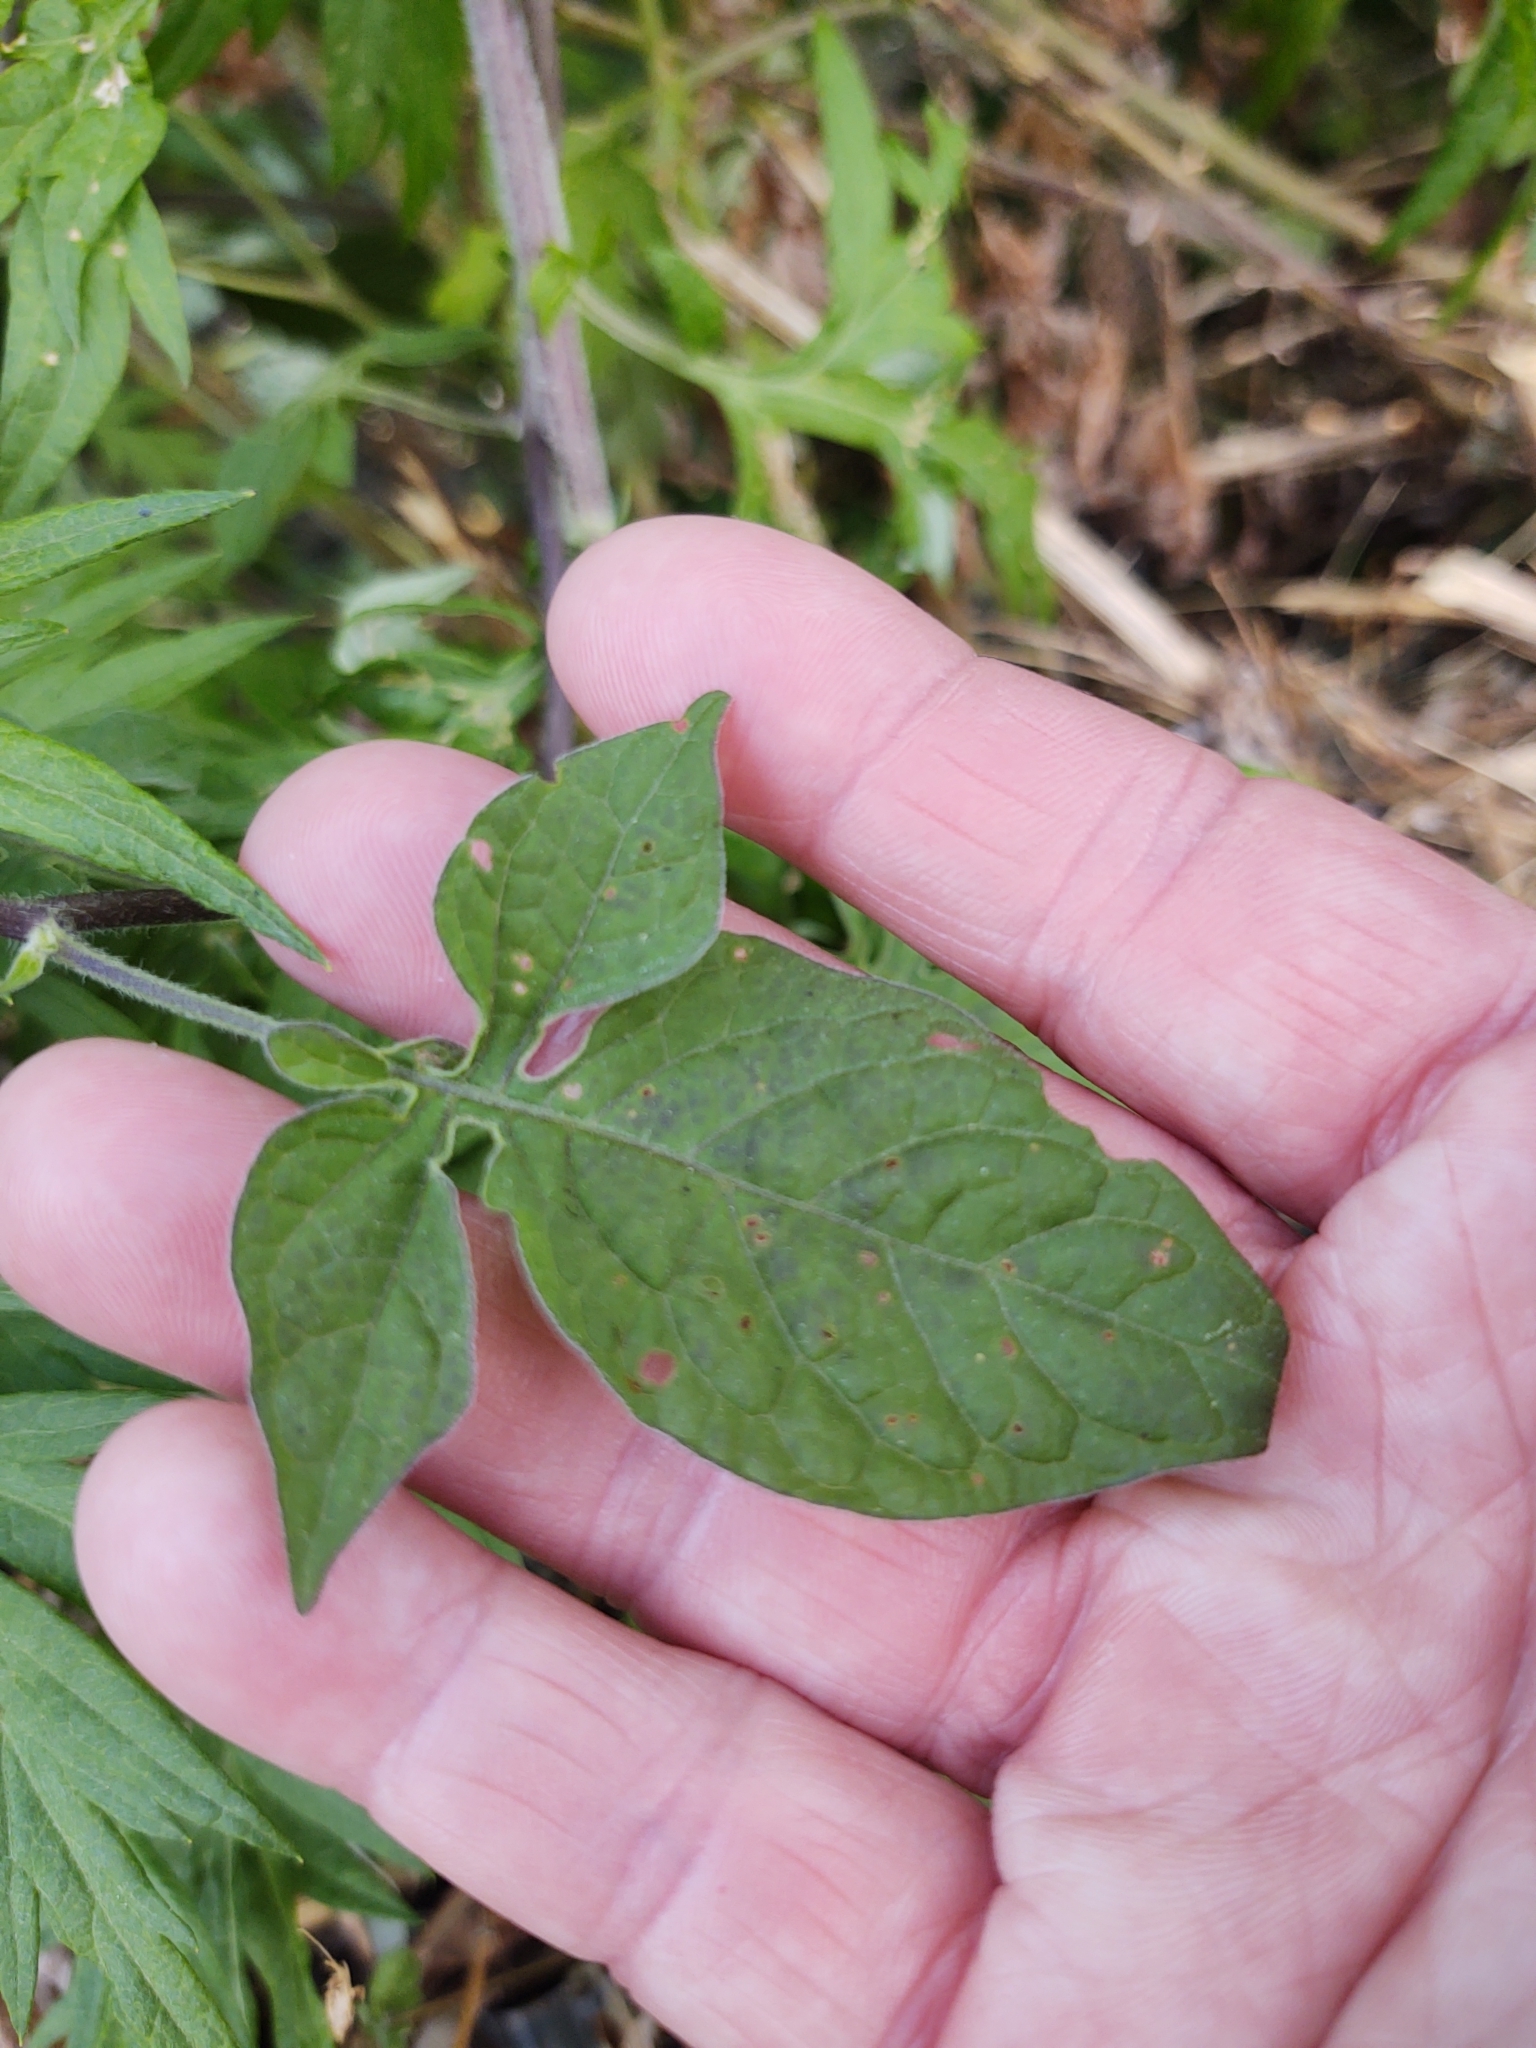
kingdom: Plantae
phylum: Tracheophyta
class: Magnoliopsida
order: Solanales
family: Solanaceae
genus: Solanum
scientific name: Solanum dulcamara
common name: Climbing nightshade
